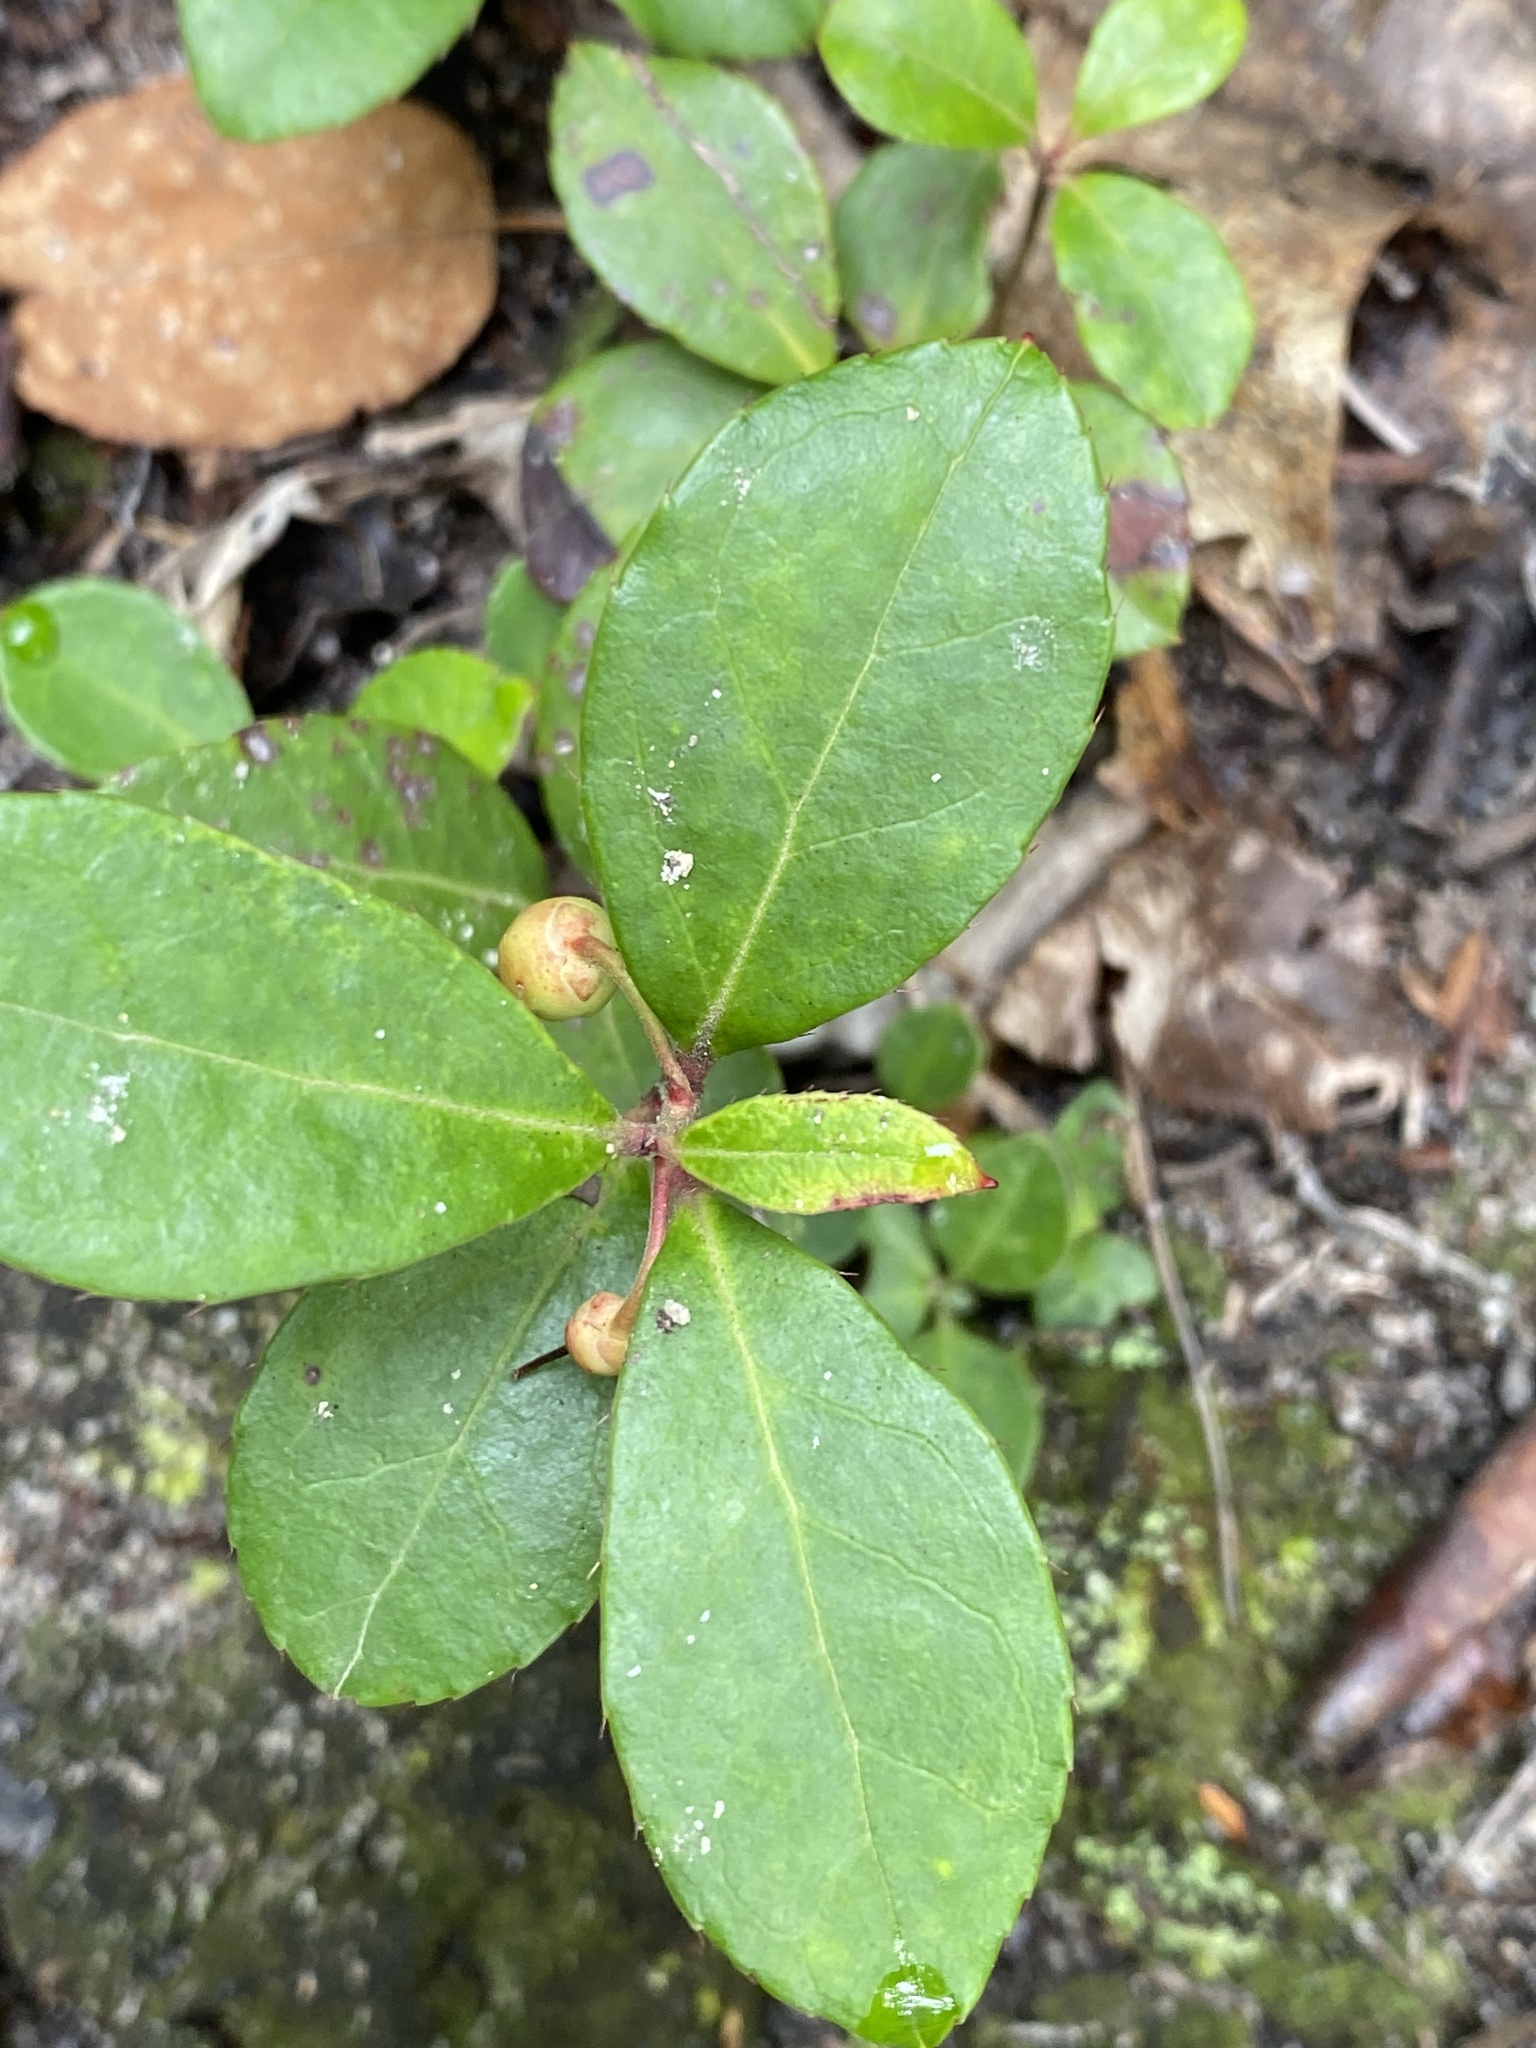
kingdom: Plantae
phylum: Tracheophyta
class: Magnoliopsida
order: Ericales
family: Ericaceae
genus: Gaultheria
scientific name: Gaultheria procumbens
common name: Checkerberry
